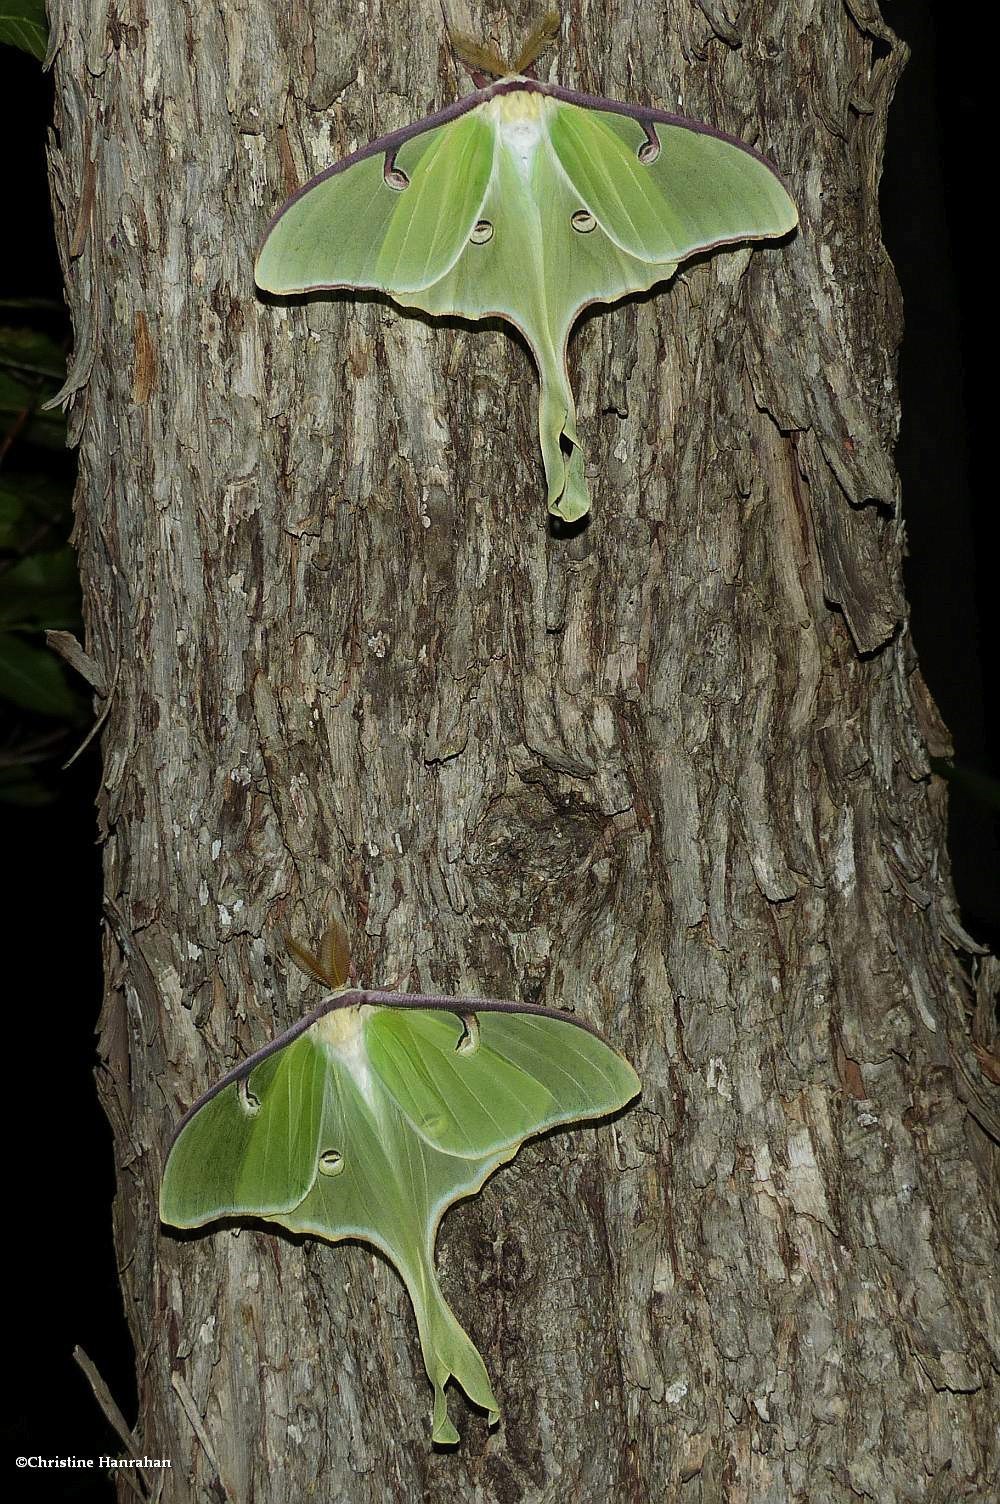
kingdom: Animalia
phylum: Arthropoda
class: Insecta
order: Lepidoptera
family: Saturniidae
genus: Actias
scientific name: Actias luna
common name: Luna moth
